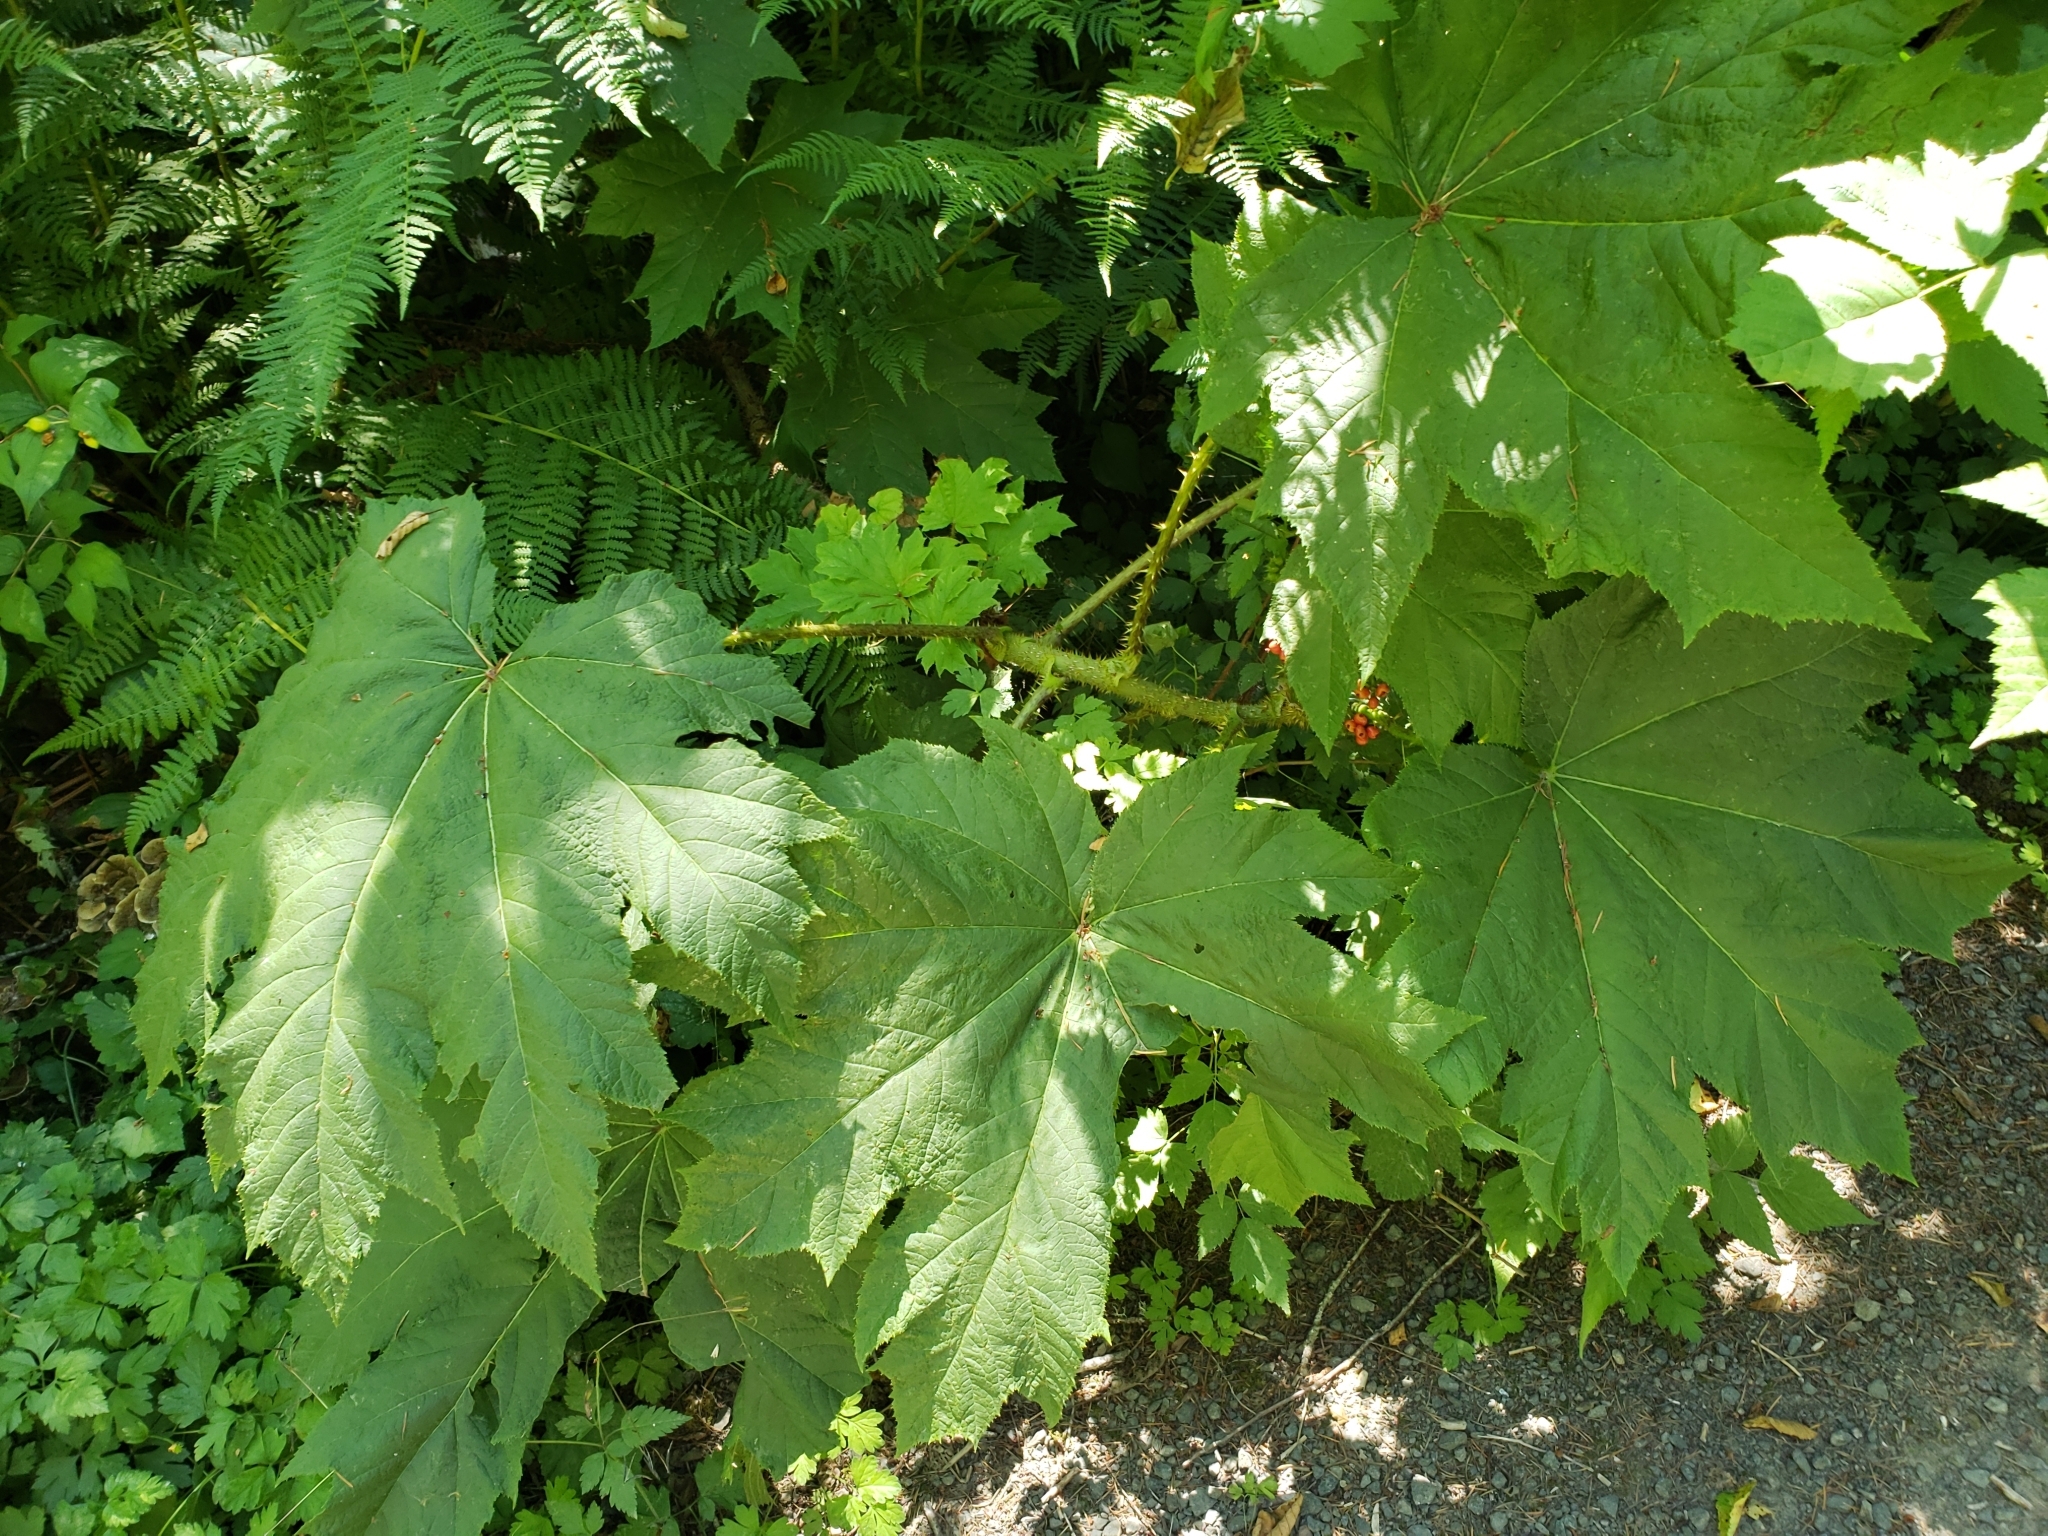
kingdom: Plantae
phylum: Tracheophyta
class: Magnoliopsida
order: Apiales
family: Araliaceae
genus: Oplopanax
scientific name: Oplopanax horridus
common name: Devil's walking-stick
